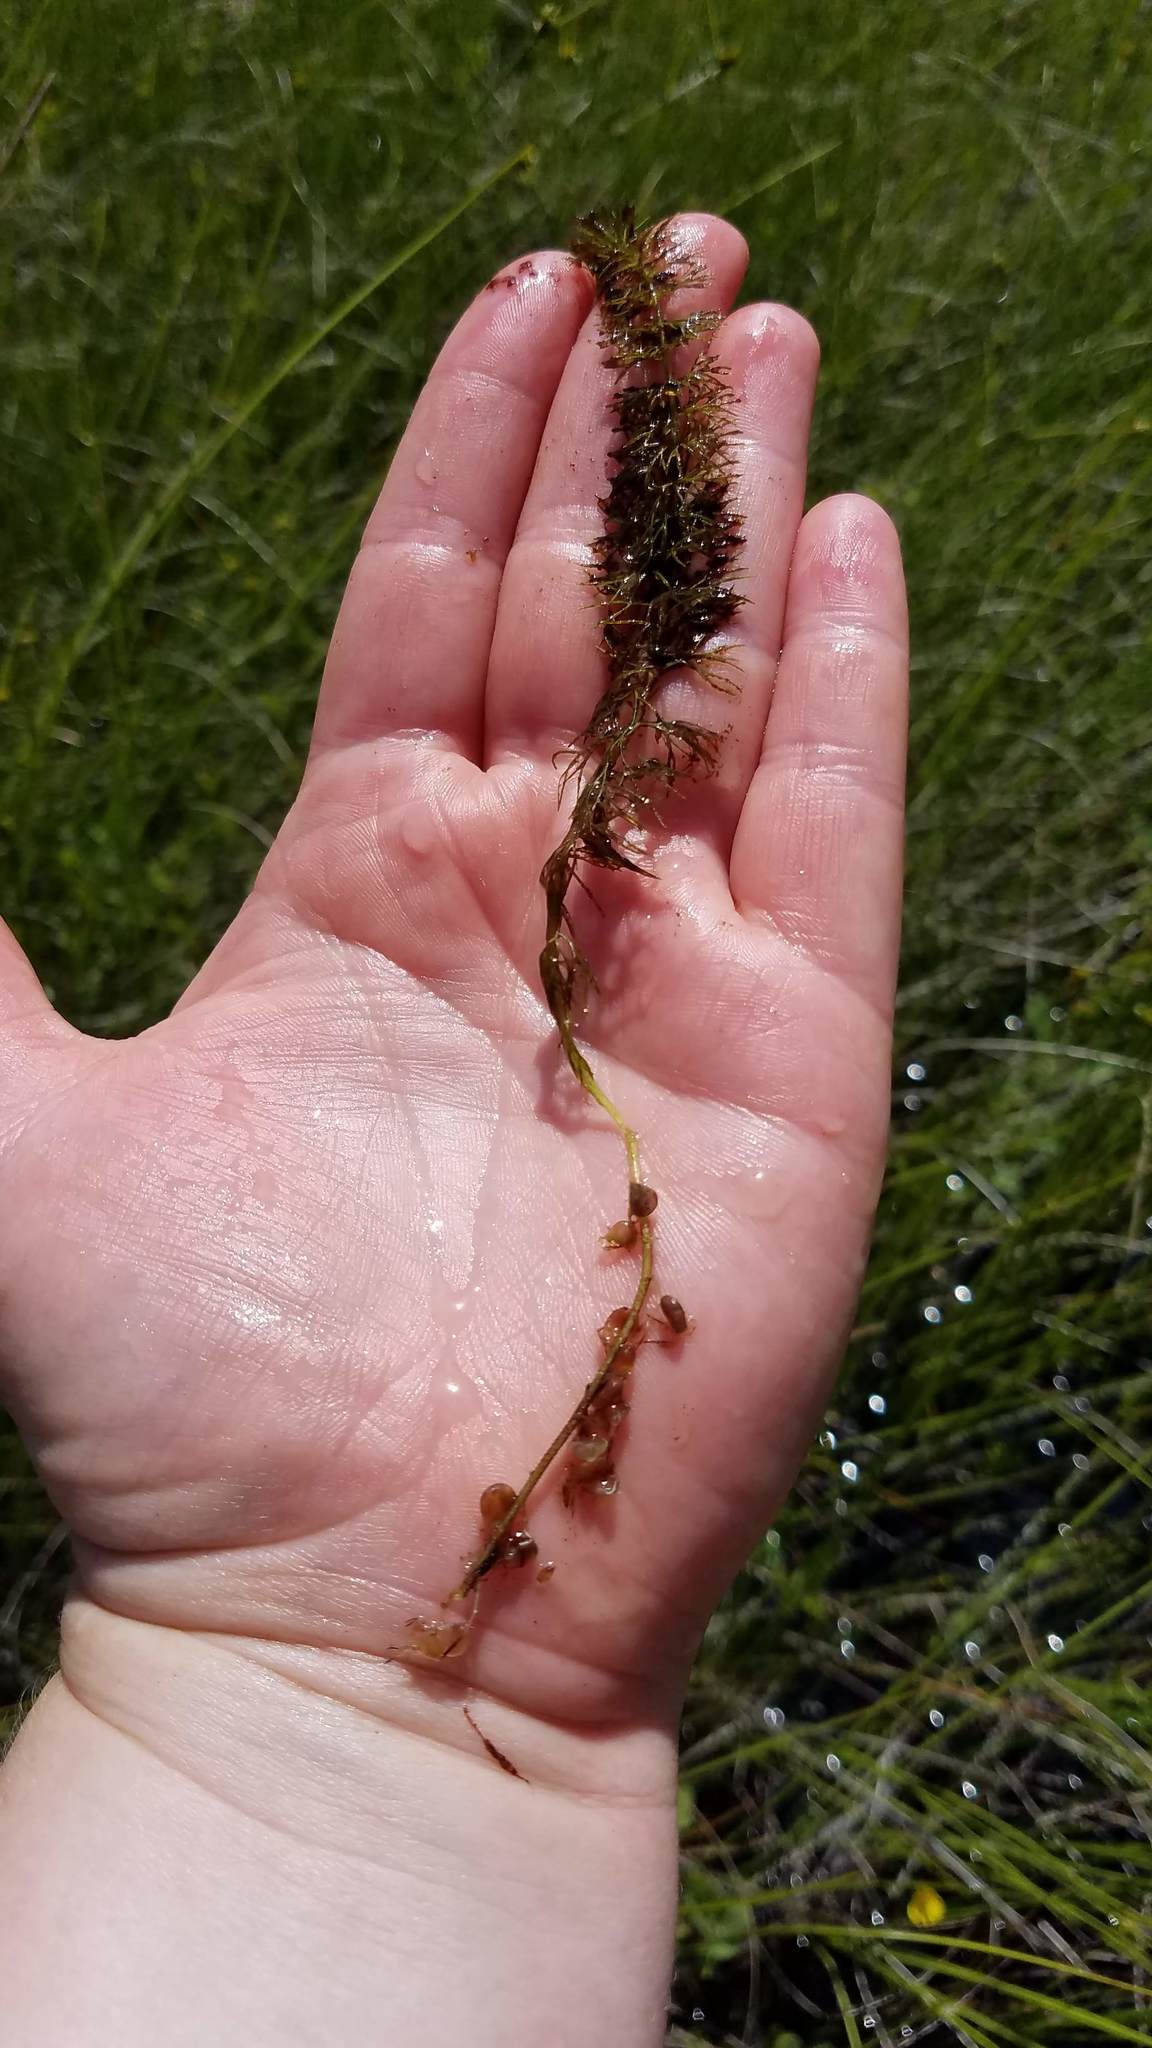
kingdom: Plantae
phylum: Tracheophyta
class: Magnoliopsida
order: Lamiales
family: Lentibulariaceae
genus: Utricularia
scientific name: Utricularia intermedia
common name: Intermediate bladderwort
